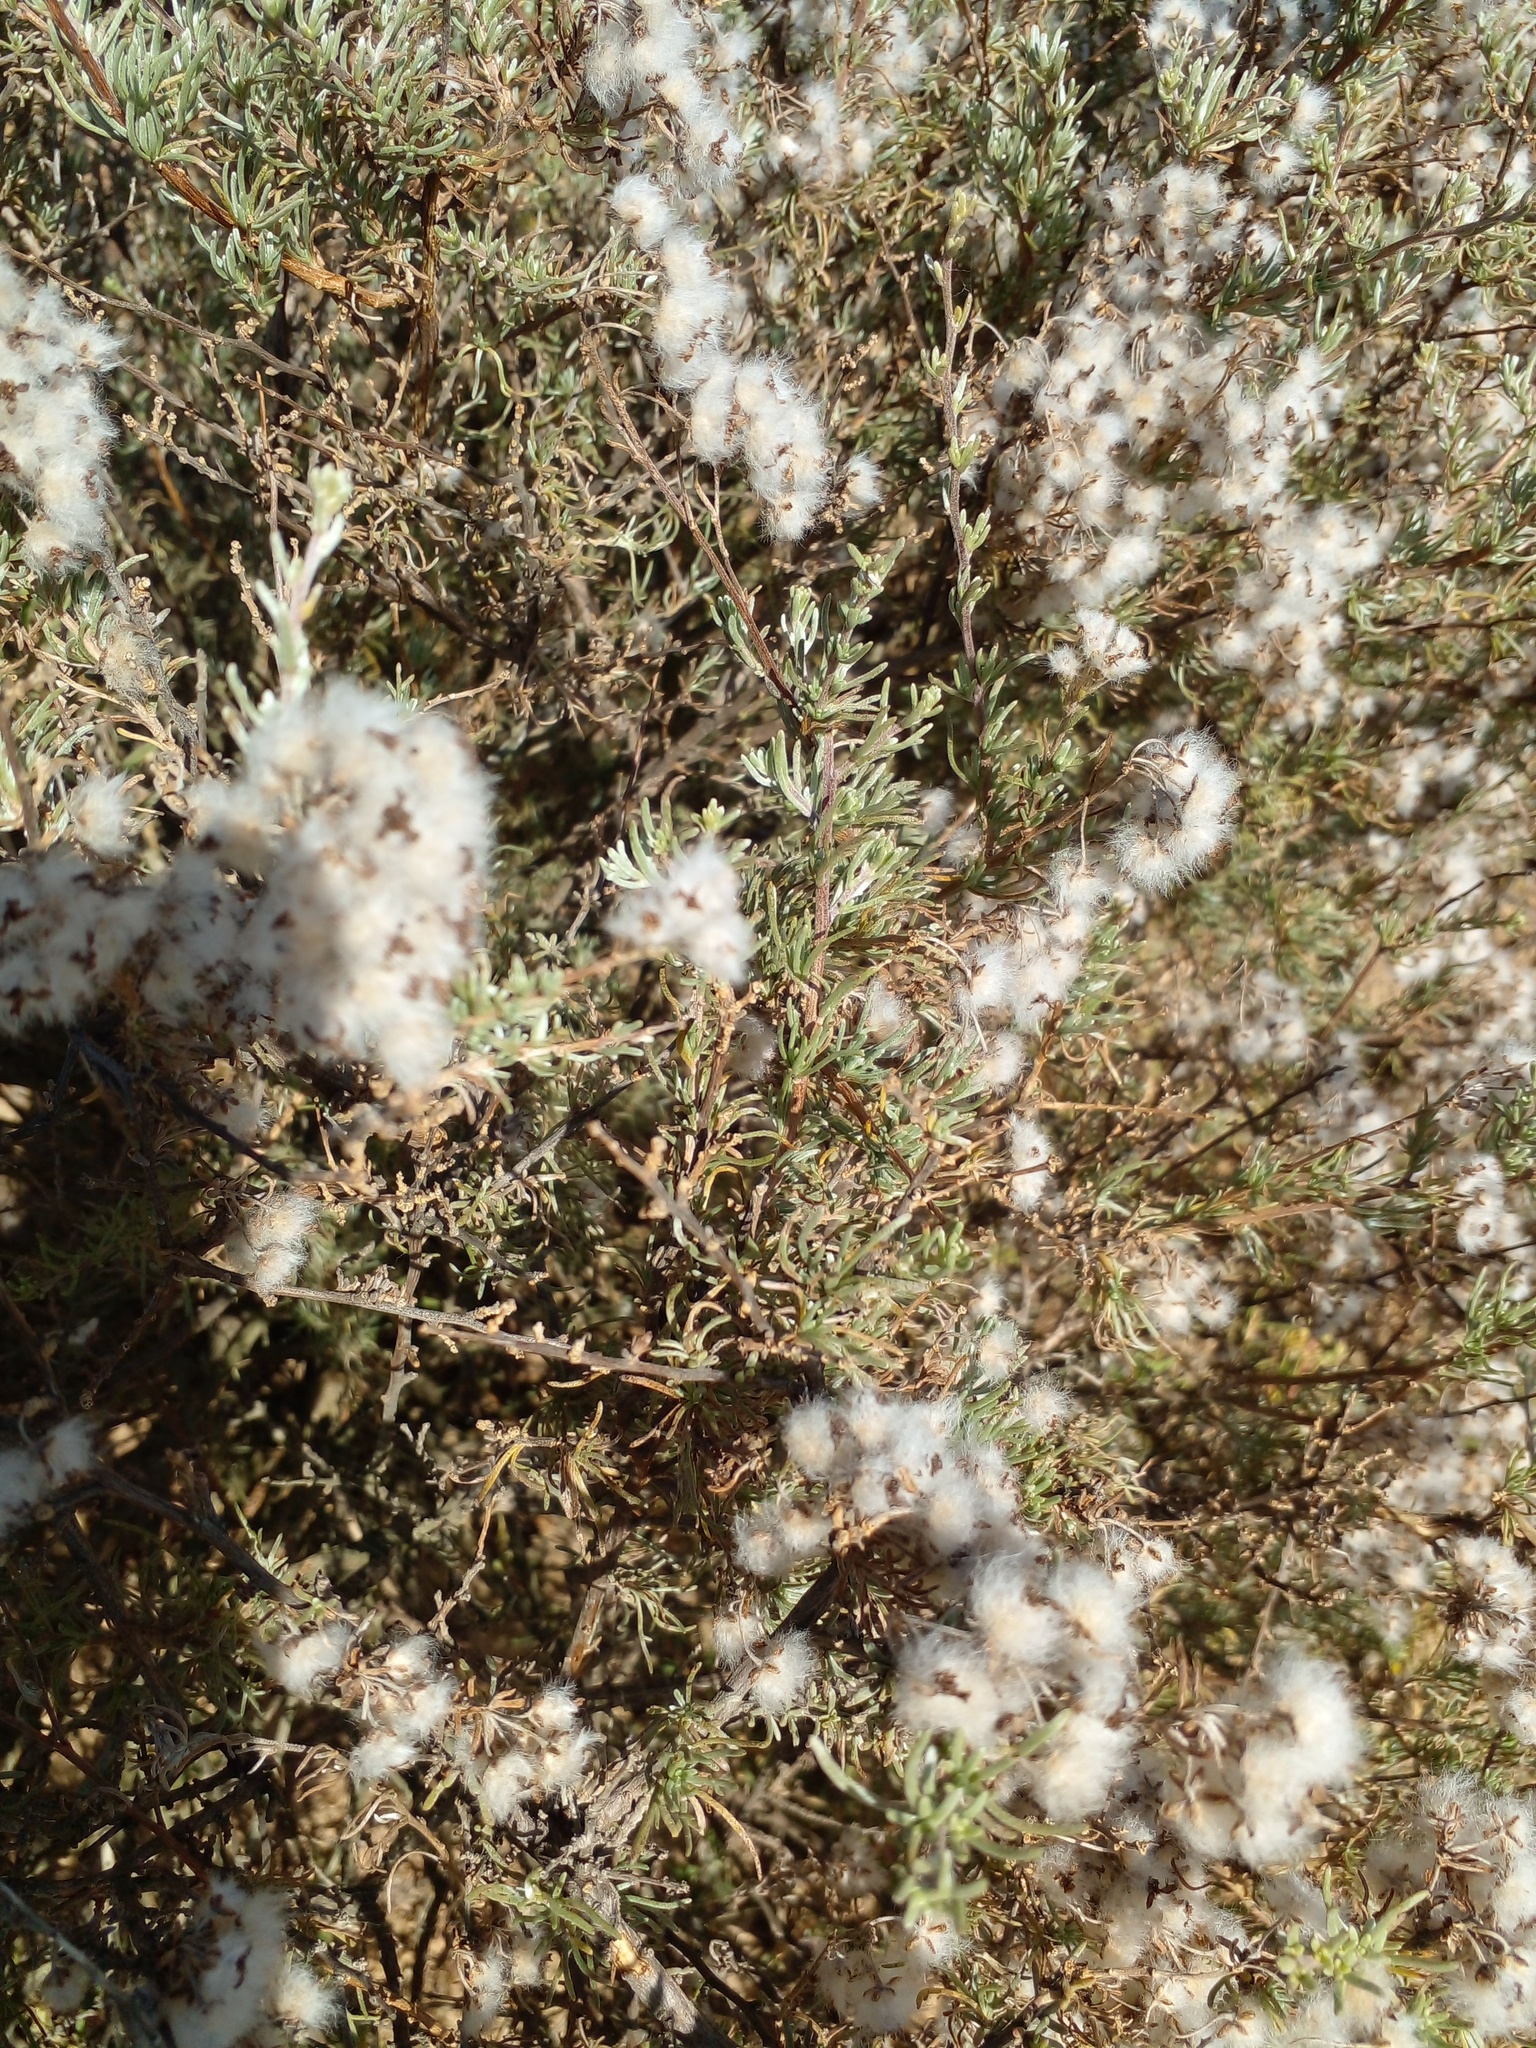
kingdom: Plantae
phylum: Tracheophyta
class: Magnoliopsida
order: Asterales
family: Asteraceae
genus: Eriocephalus
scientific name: Eriocephalus africanus
